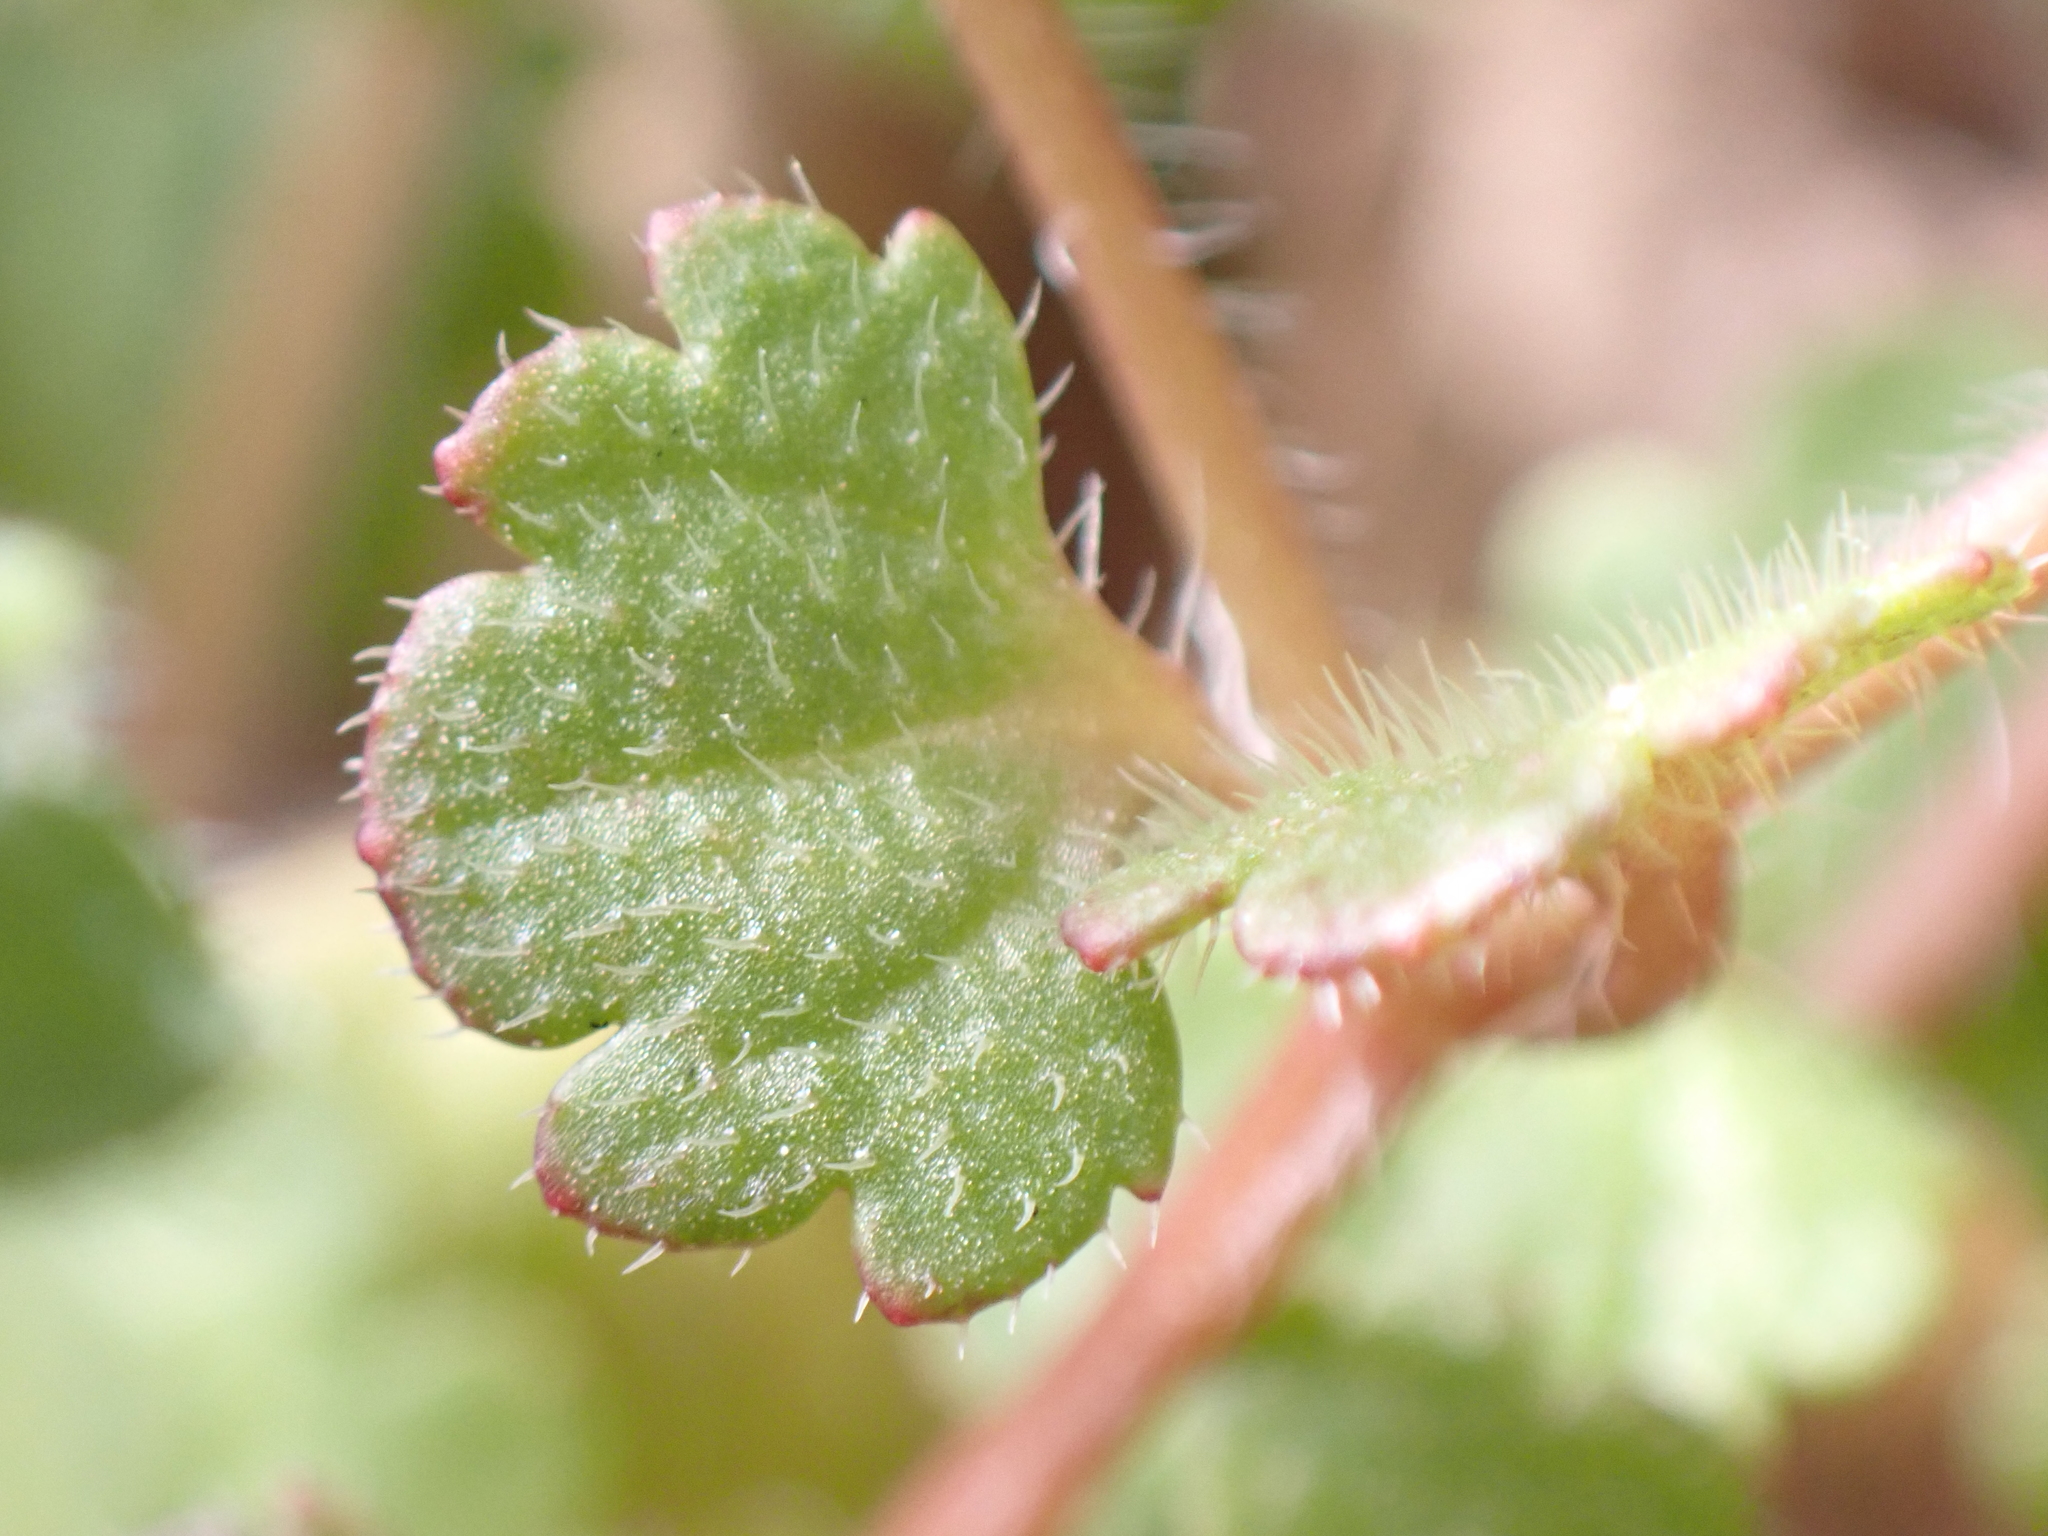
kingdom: Plantae
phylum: Tracheophyta
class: Magnoliopsida
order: Lamiales
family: Plantaginaceae
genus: Veronica
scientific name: Veronica cymbalaria
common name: Pale speedwell
